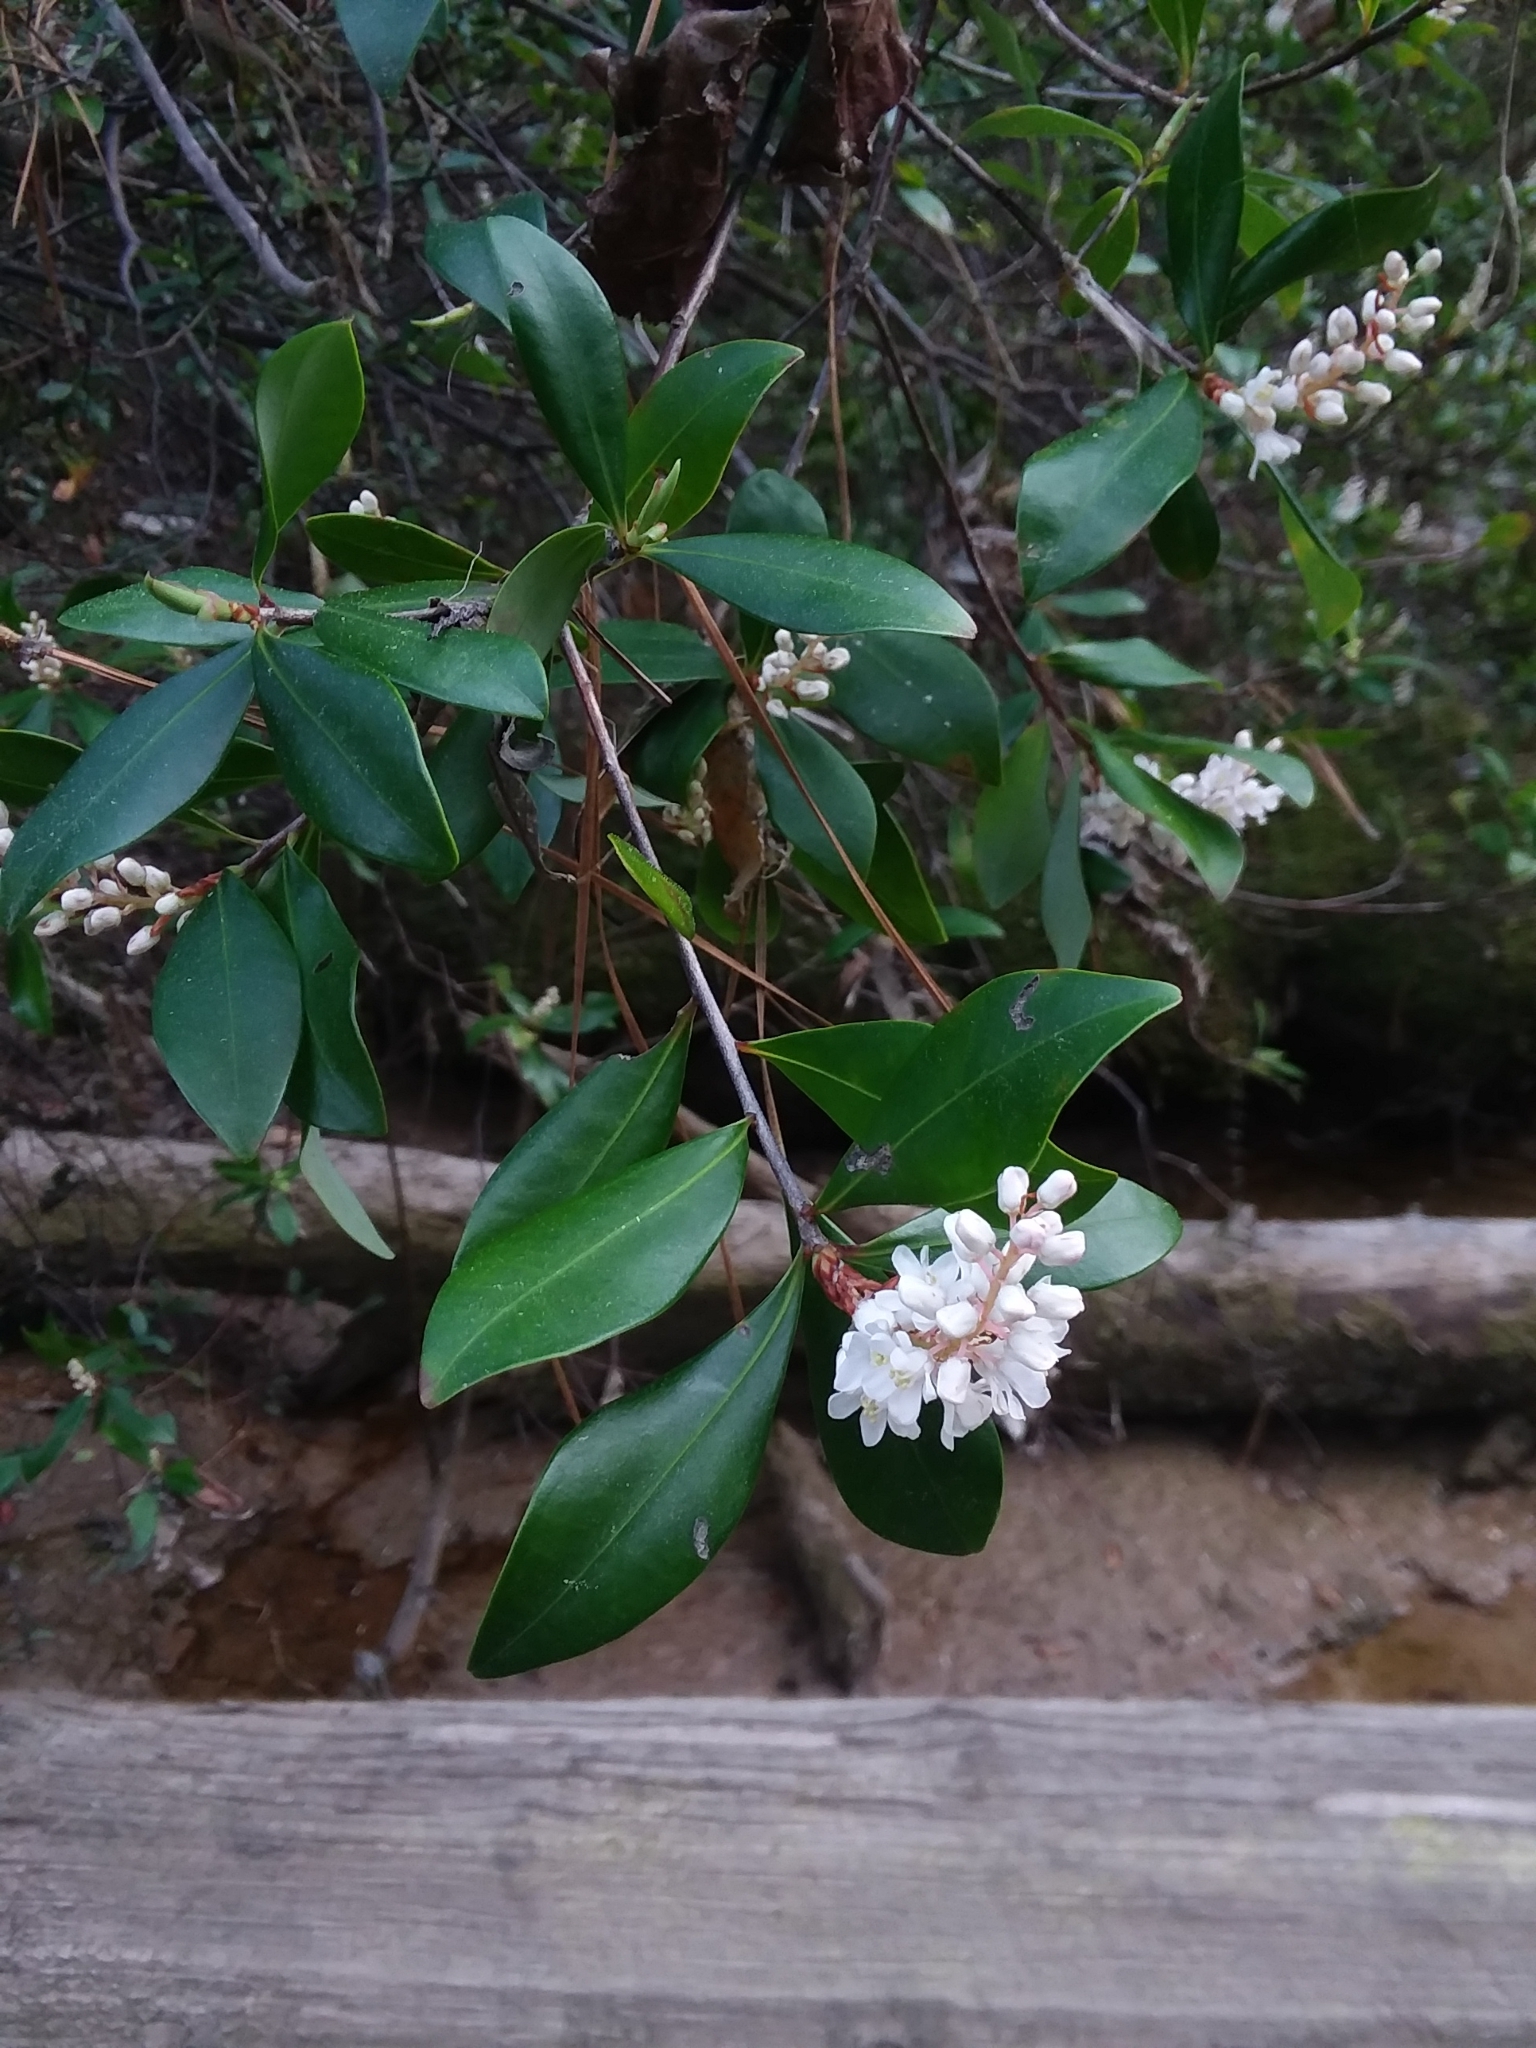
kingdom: Plantae
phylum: Tracheophyta
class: Magnoliopsida
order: Ericales
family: Cyrillaceae
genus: Cliftonia
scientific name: Cliftonia monophylla
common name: Titi
